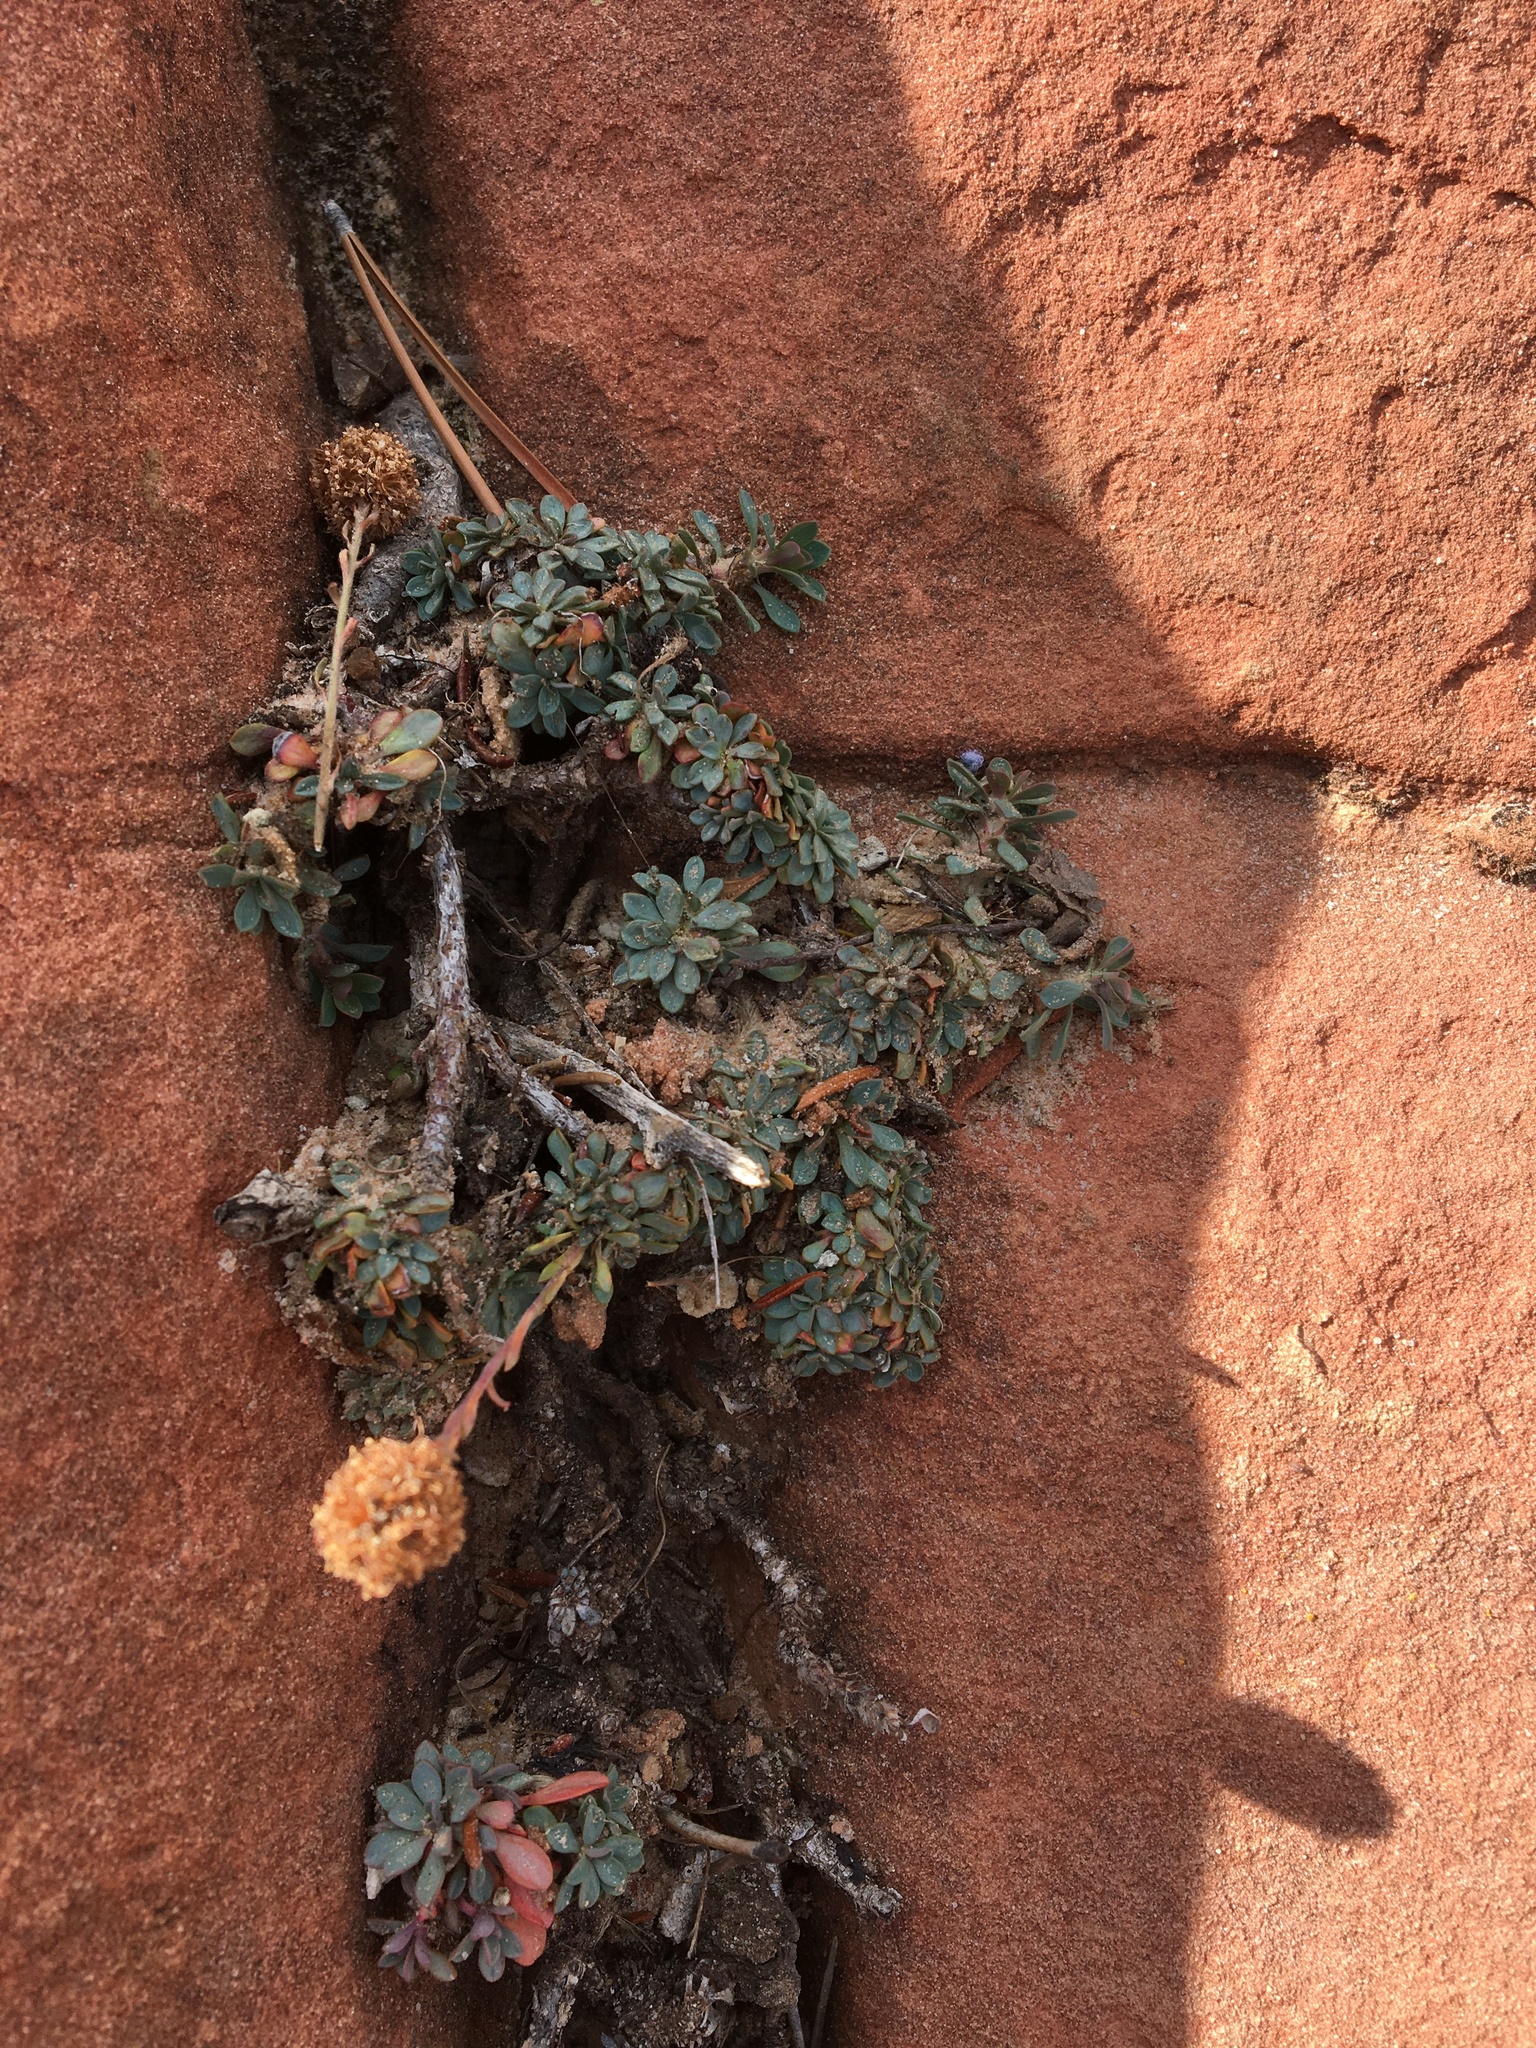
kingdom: Plantae
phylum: Tracheophyta
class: Magnoliopsida
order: Rosales
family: Rosaceae
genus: Petrophytum
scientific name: Petrophytum caespitosum
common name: Mat rockspirea
